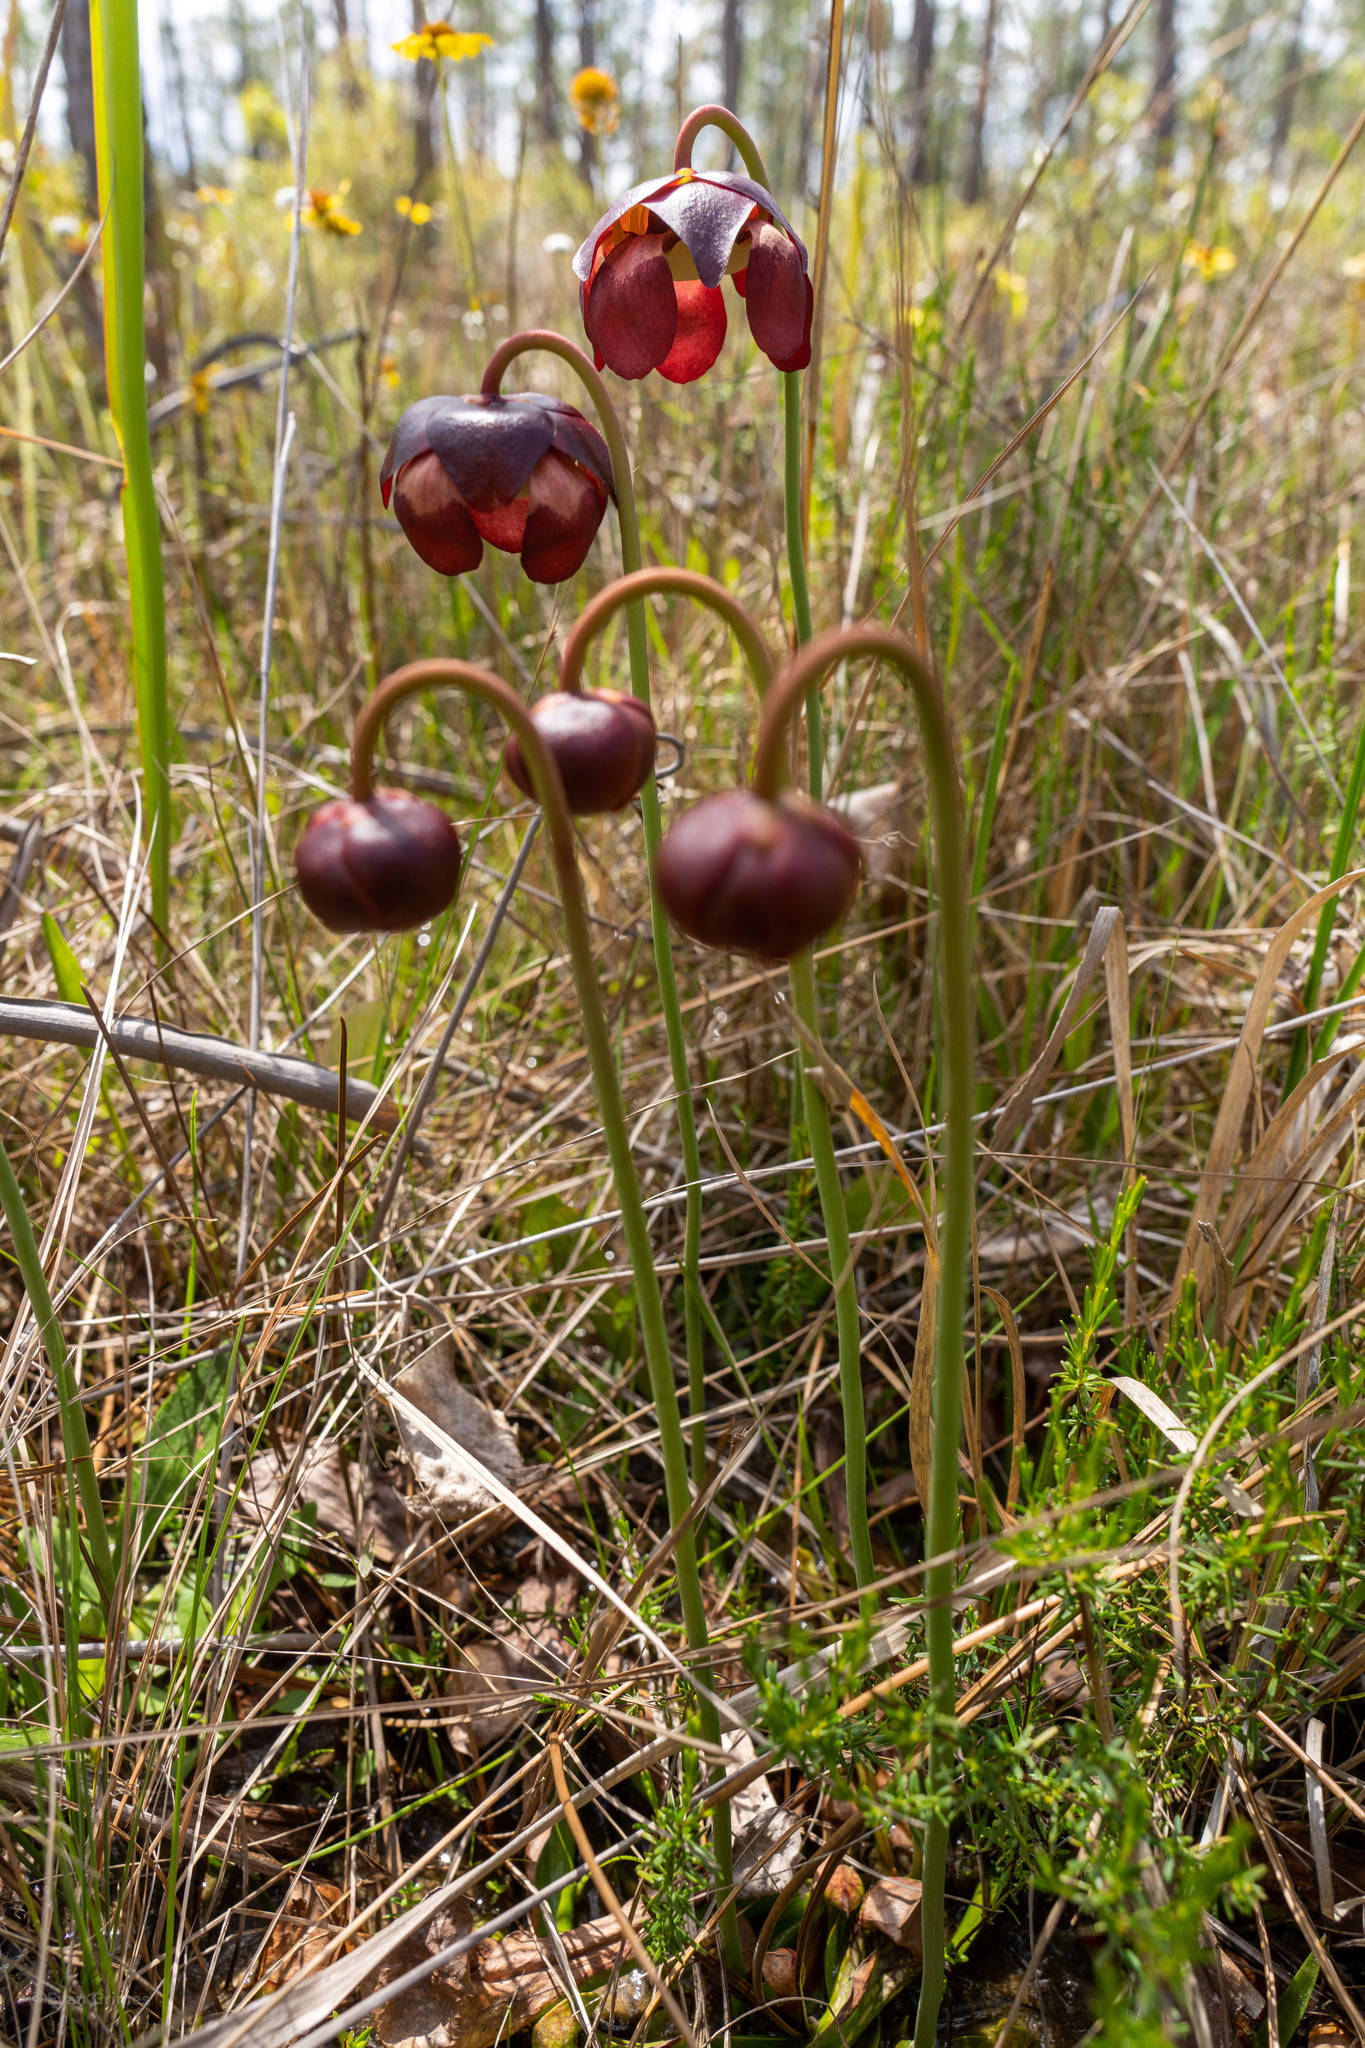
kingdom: Plantae
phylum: Tracheophyta
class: Magnoliopsida
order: Ericales
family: Sarraceniaceae
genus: Sarracenia
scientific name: Sarracenia psittacina
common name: Parrot pitcherplant
